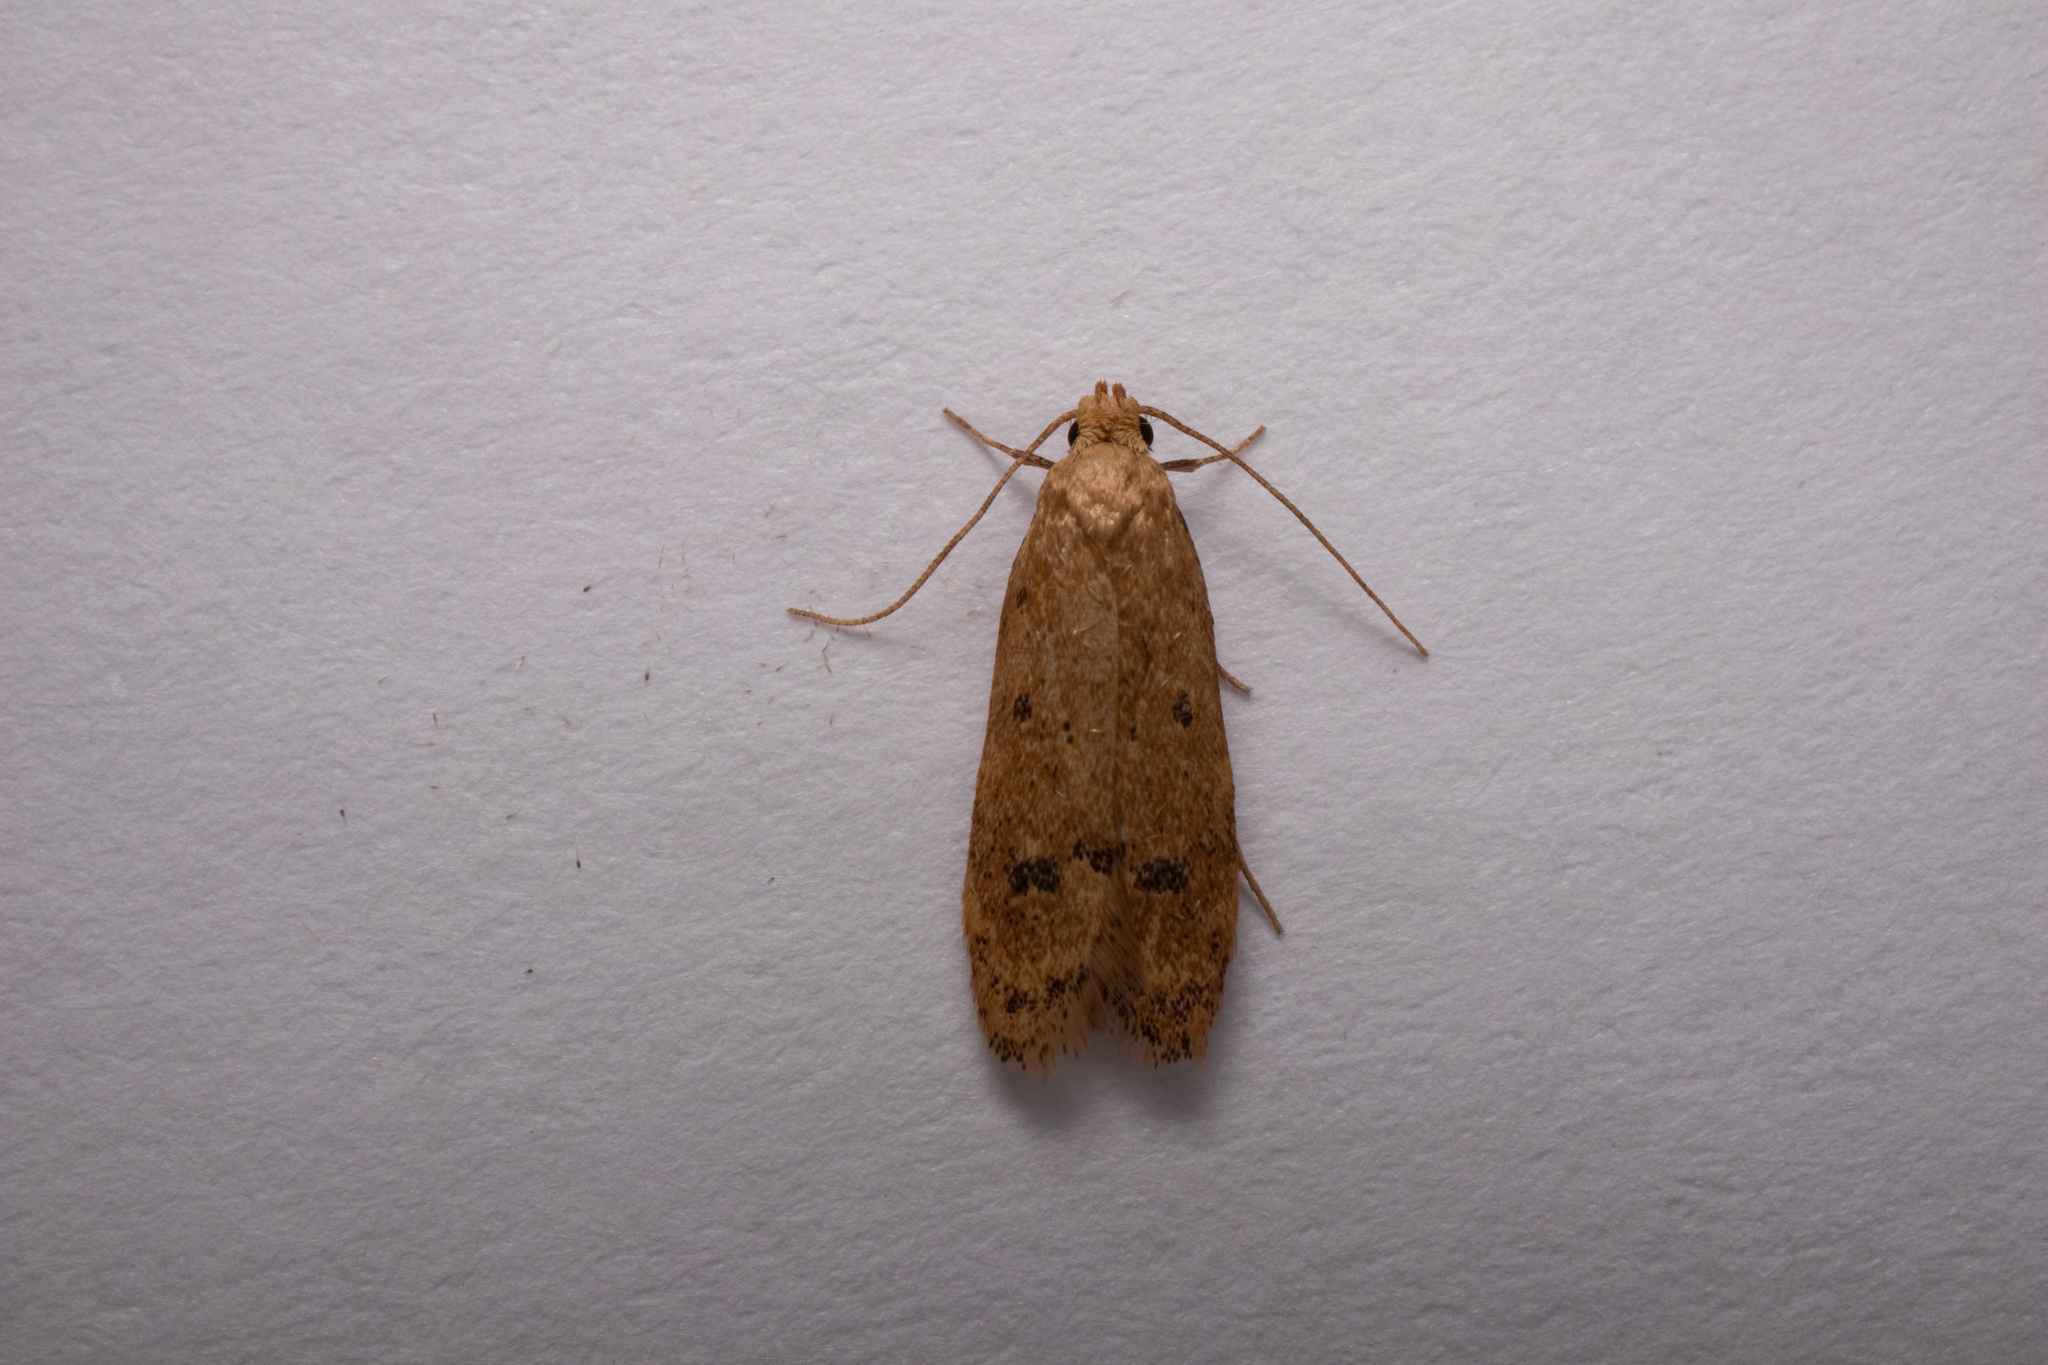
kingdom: Animalia
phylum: Arthropoda
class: Insecta
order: Lepidoptera
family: Autostichidae
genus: Gerdana
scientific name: Gerdana caritella
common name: Gerdana moth
